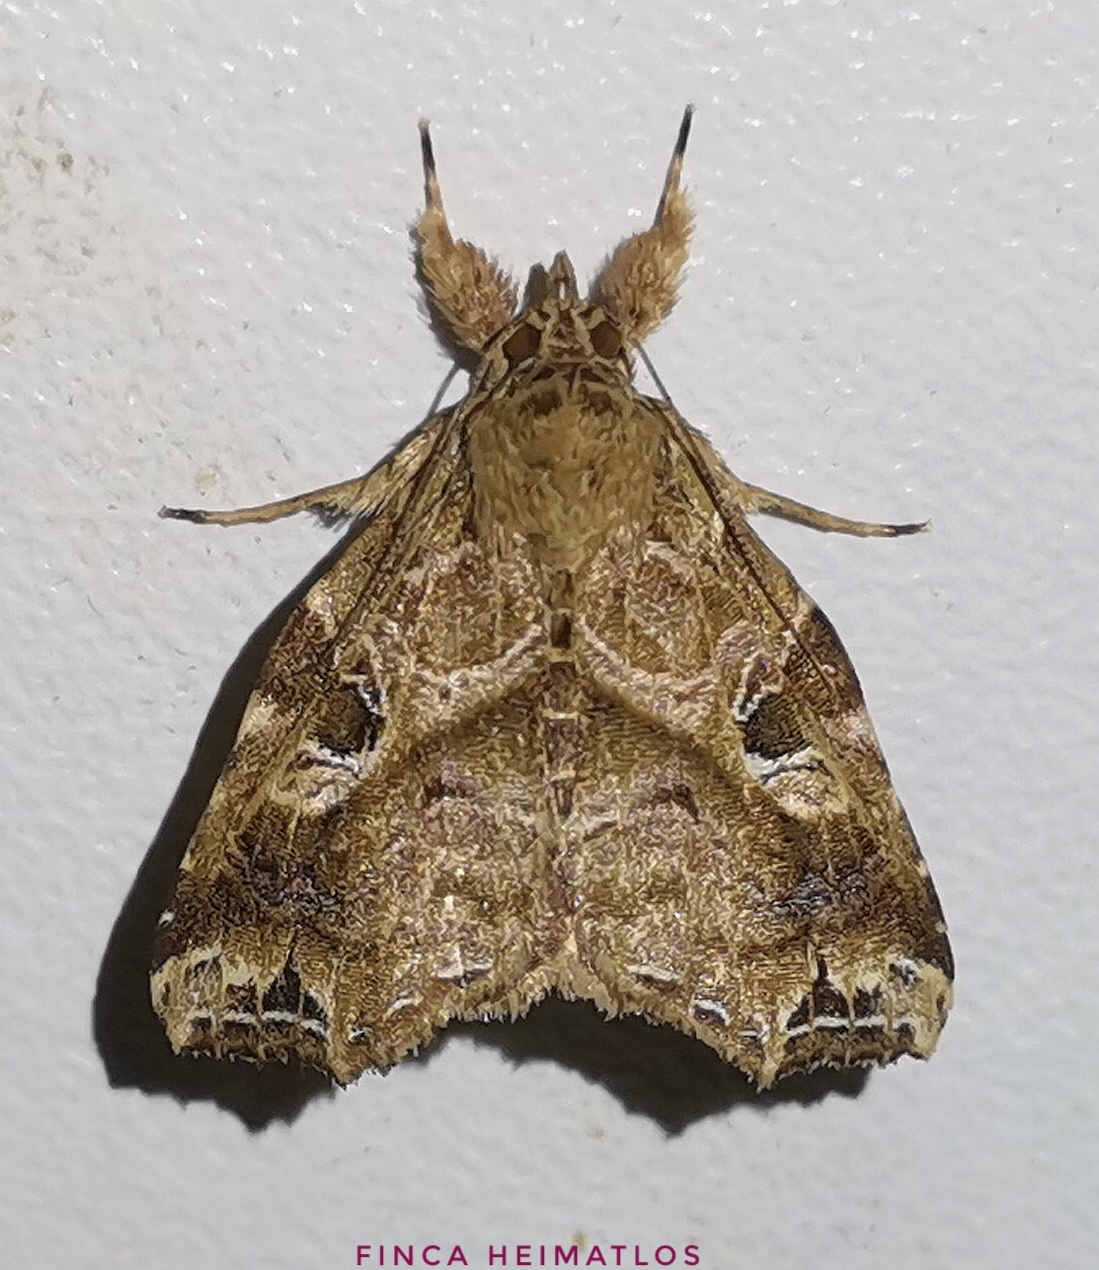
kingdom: Animalia
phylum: Arthropoda
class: Insecta
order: Lepidoptera
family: Noctuidae
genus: Callopistria
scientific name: Callopistria floridensis
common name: Florida fern moth
